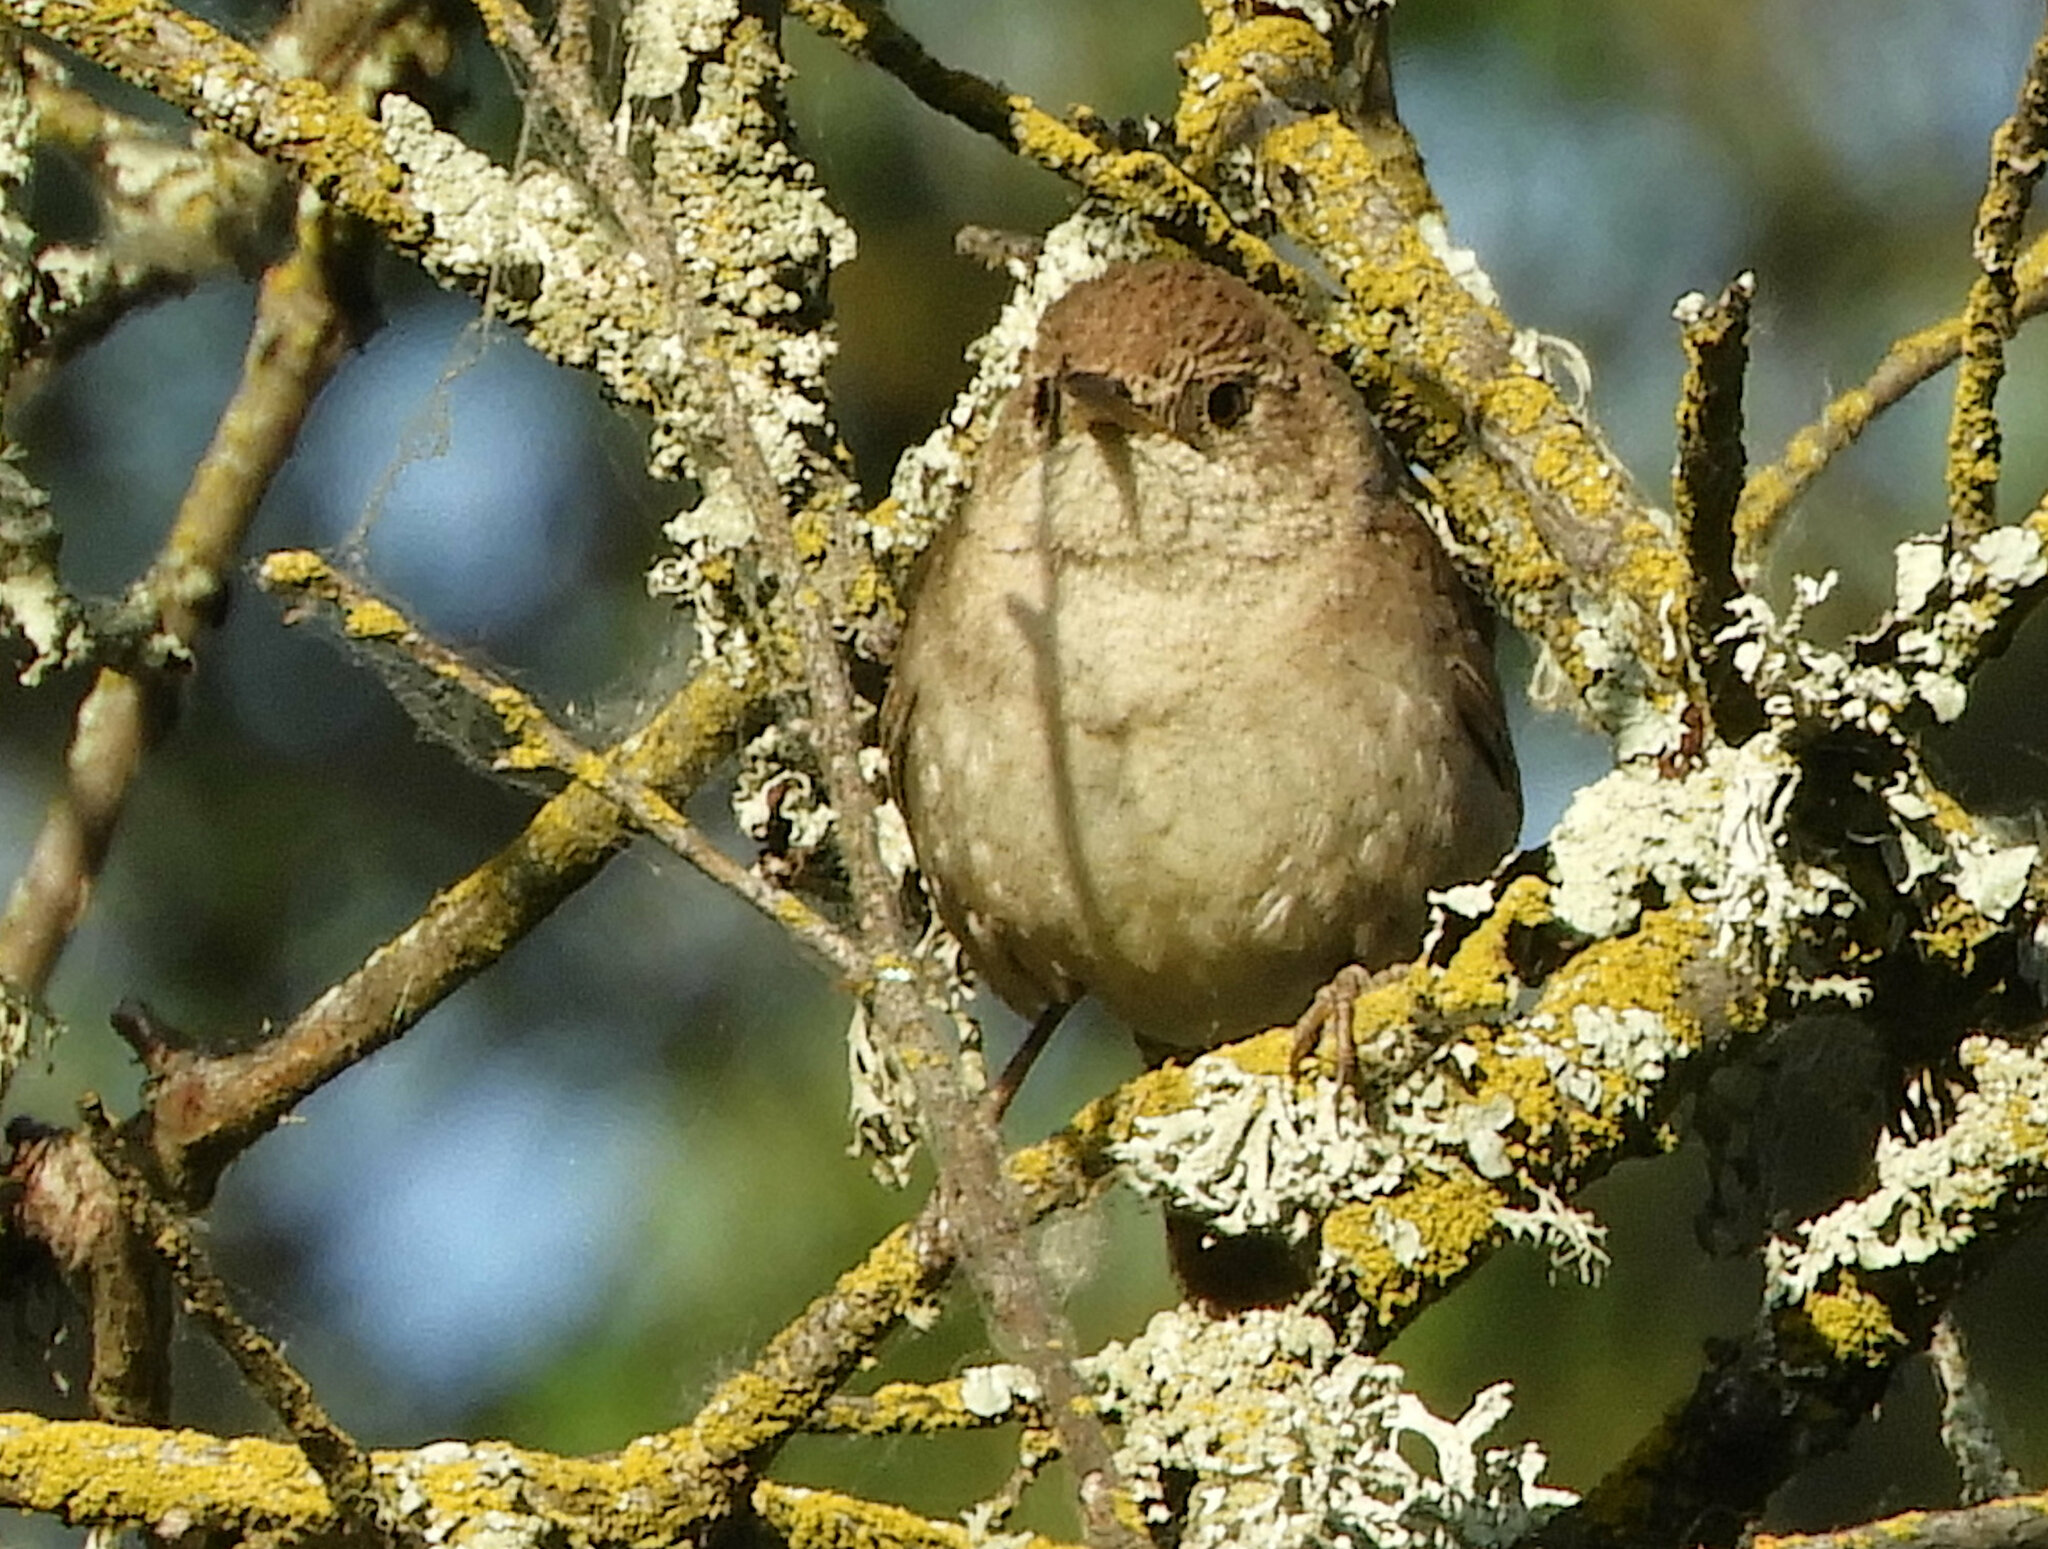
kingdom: Animalia
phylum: Chordata
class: Aves
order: Passeriformes
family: Troglodytidae
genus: Troglodytes
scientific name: Troglodytes aedon
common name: House wren
